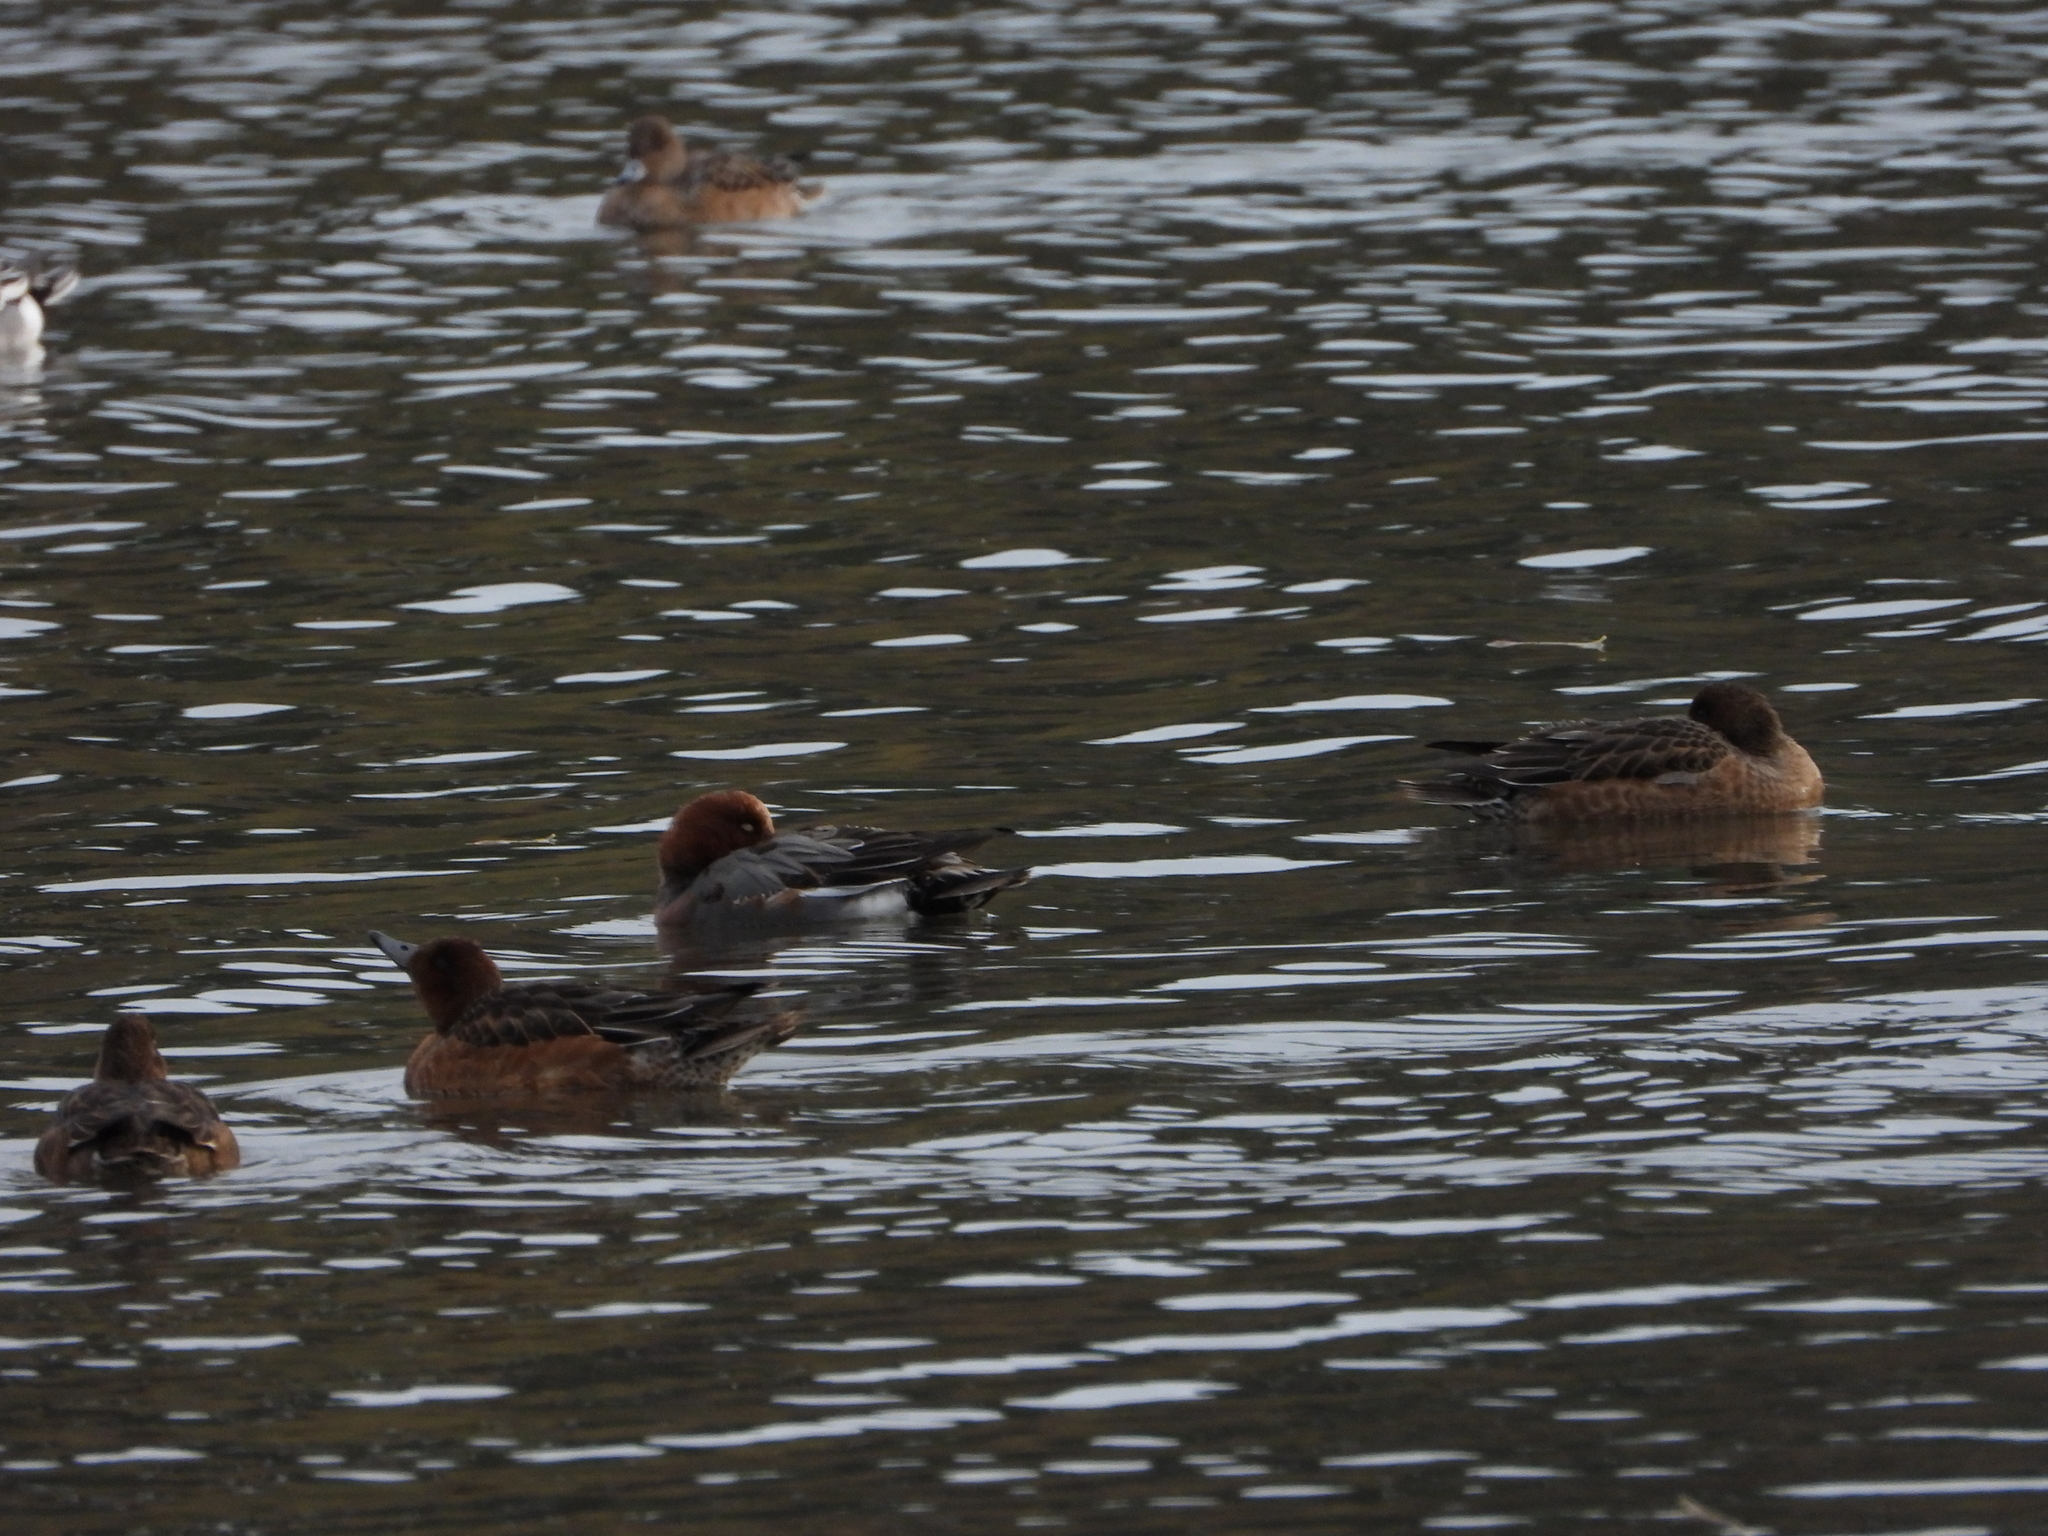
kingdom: Animalia
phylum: Chordata
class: Aves
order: Anseriformes
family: Anatidae
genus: Mareca
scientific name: Mareca penelope
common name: Eurasian wigeon
